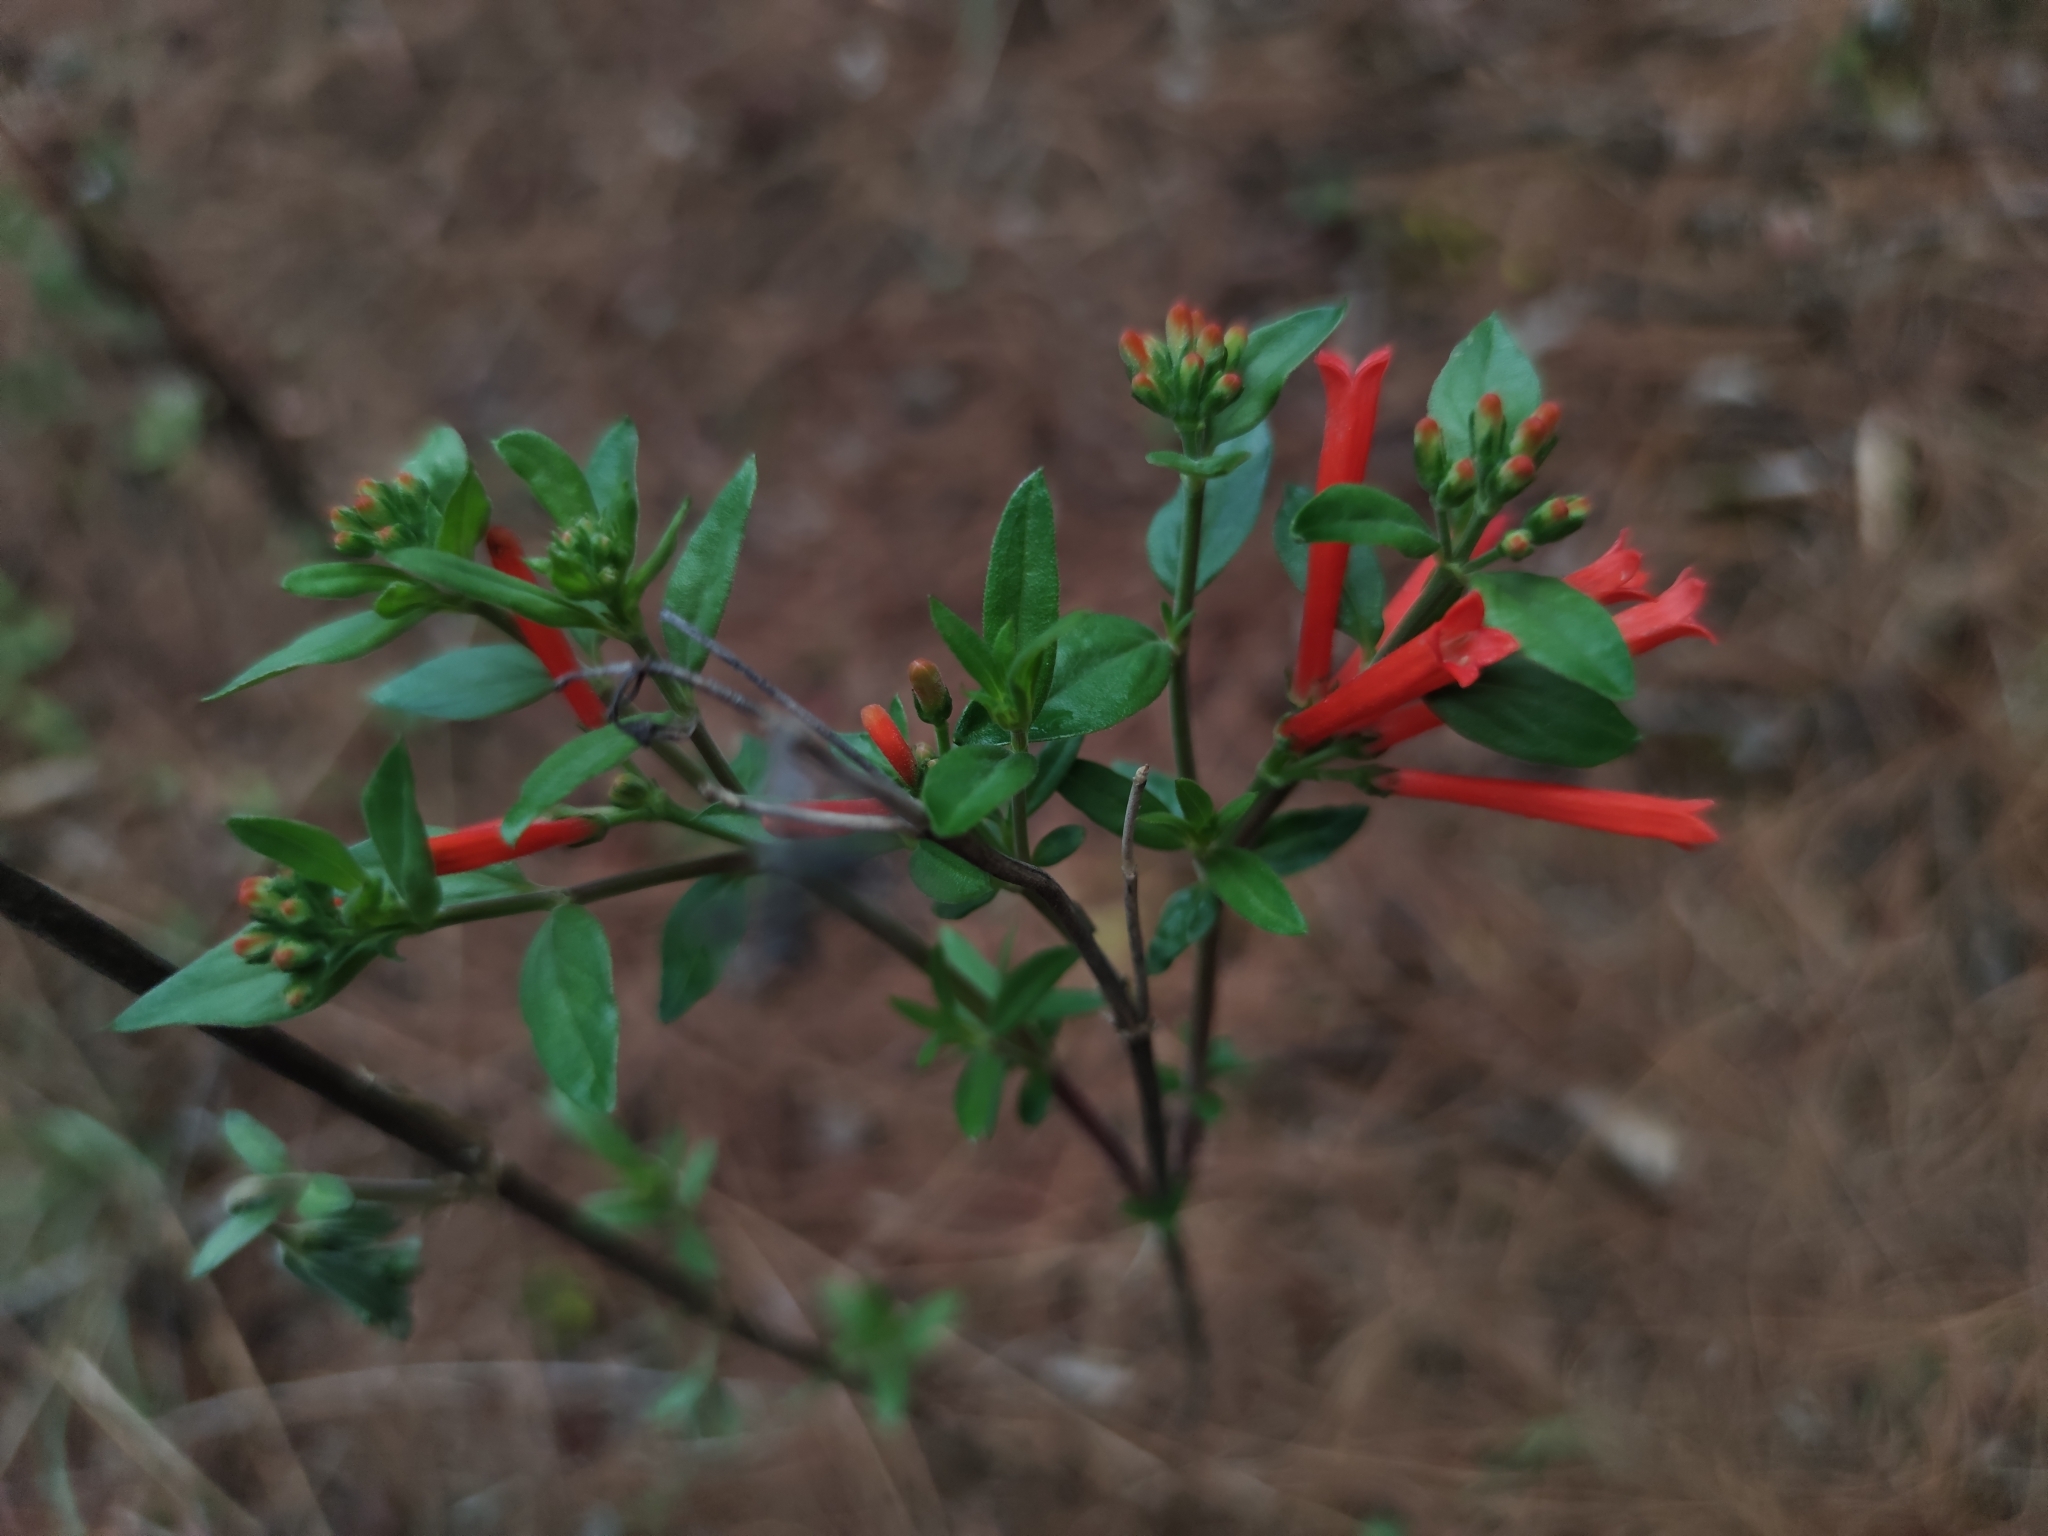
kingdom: Plantae
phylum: Tracheophyta
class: Magnoliopsida
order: Gentianales
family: Rubiaceae
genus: Bouvardia
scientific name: Bouvardia ternifolia
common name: Scarlet bouvardia
